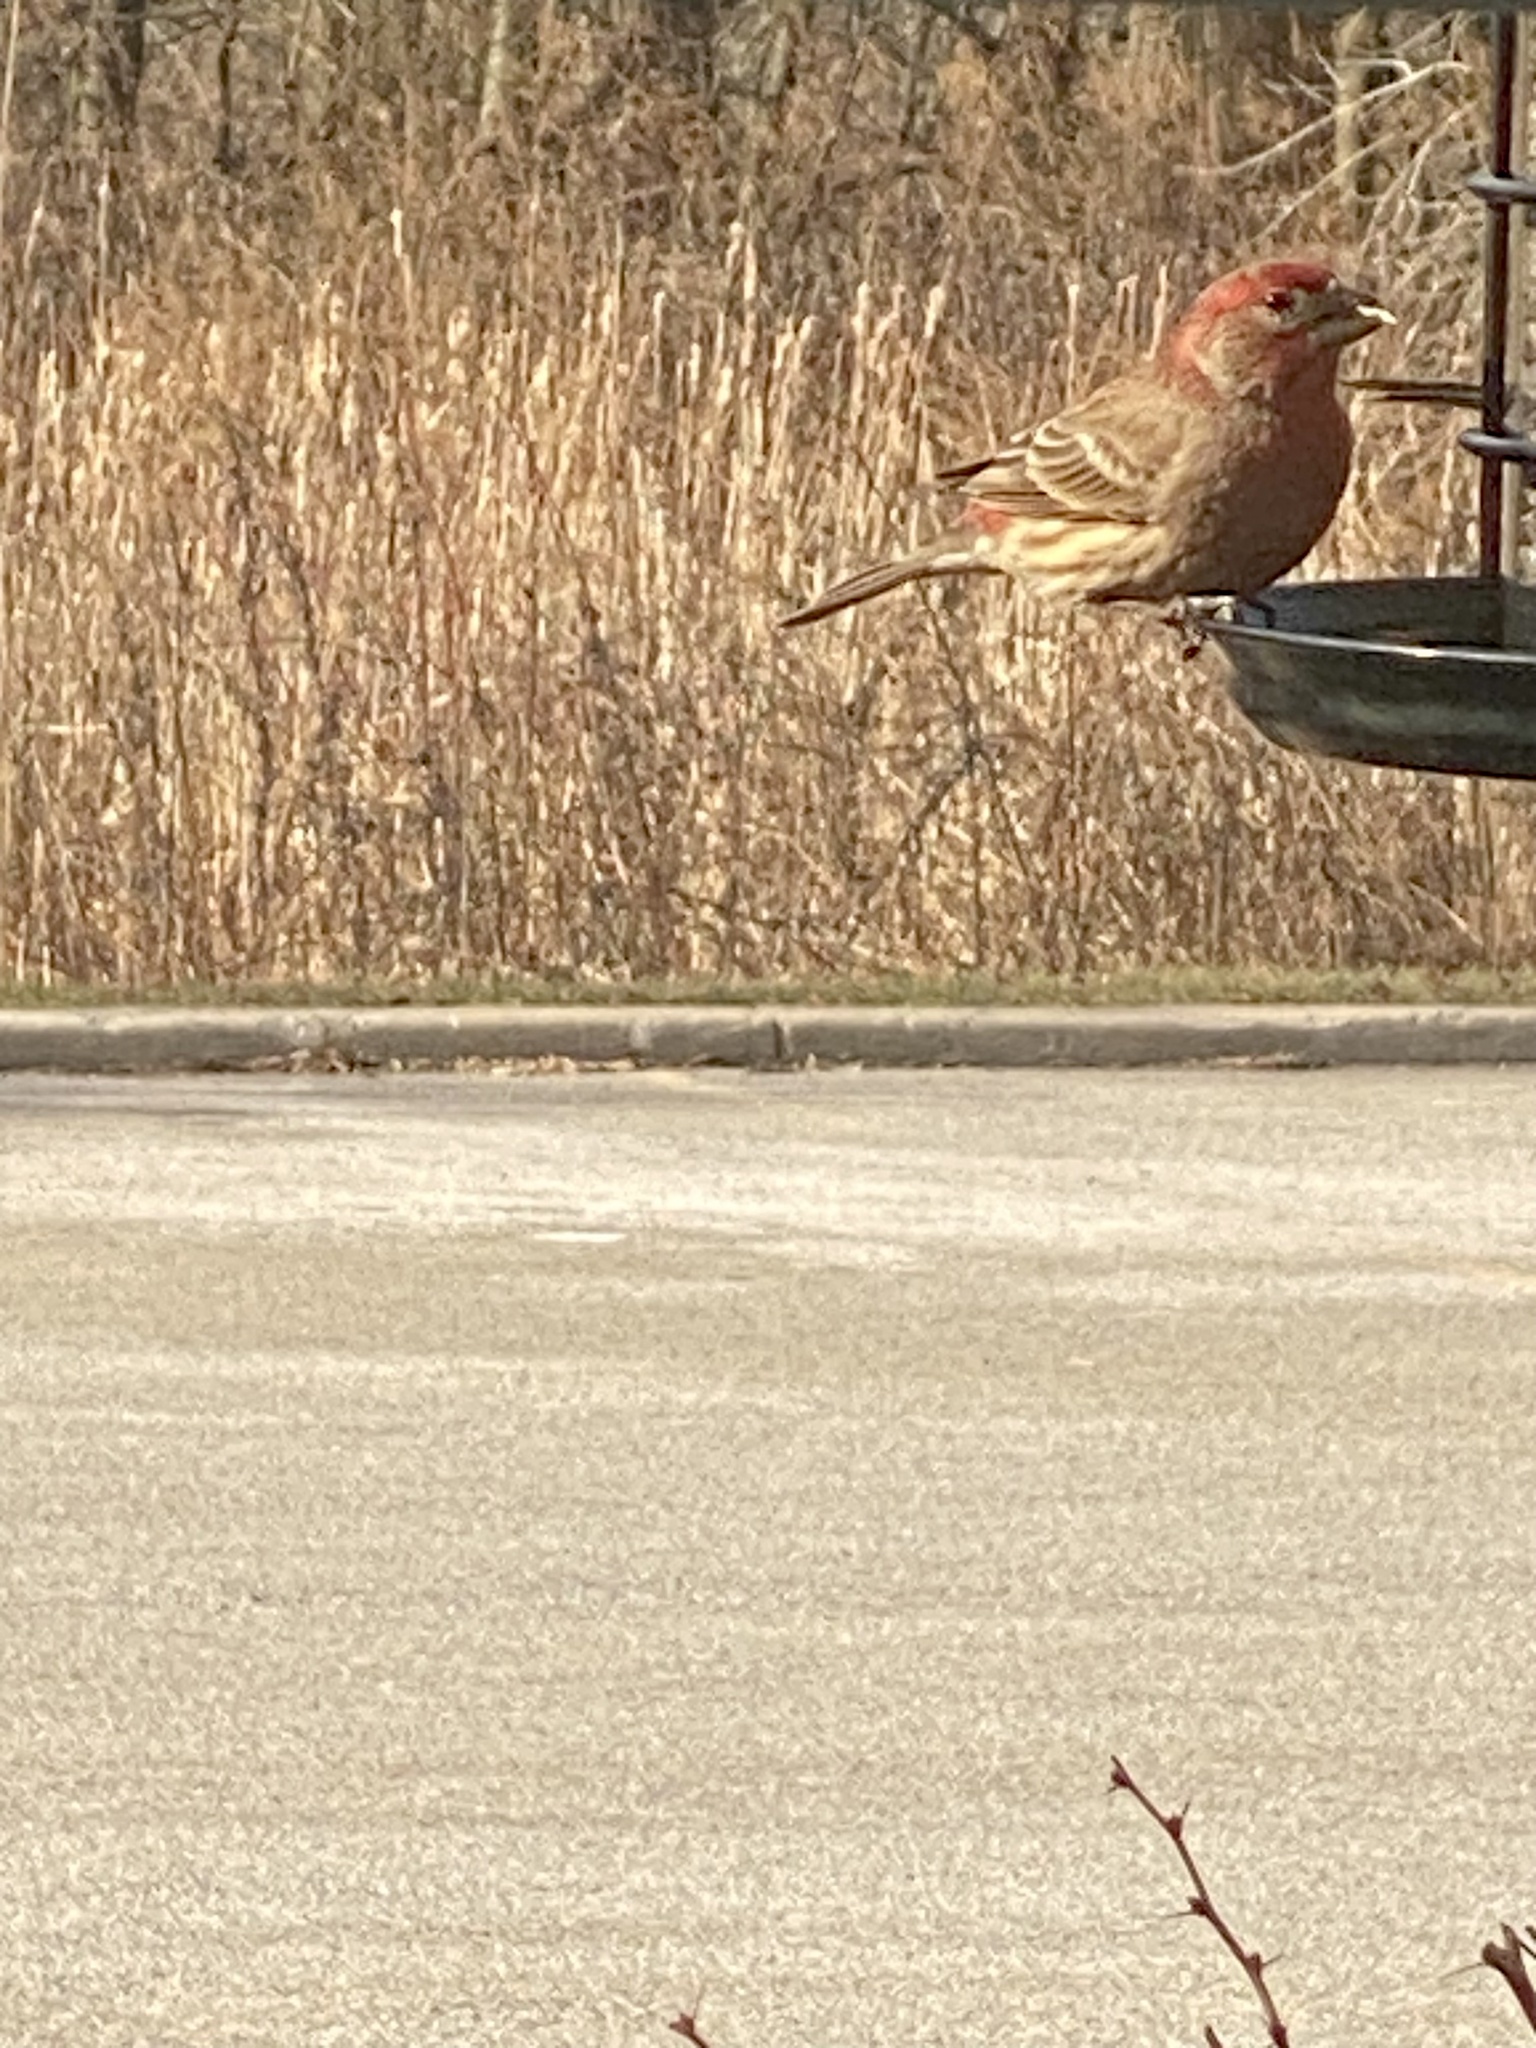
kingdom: Animalia
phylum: Chordata
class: Aves
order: Passeriformes
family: Fringillidae
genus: Haemorhous
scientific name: Haemorhous mexicanus
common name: House finch
